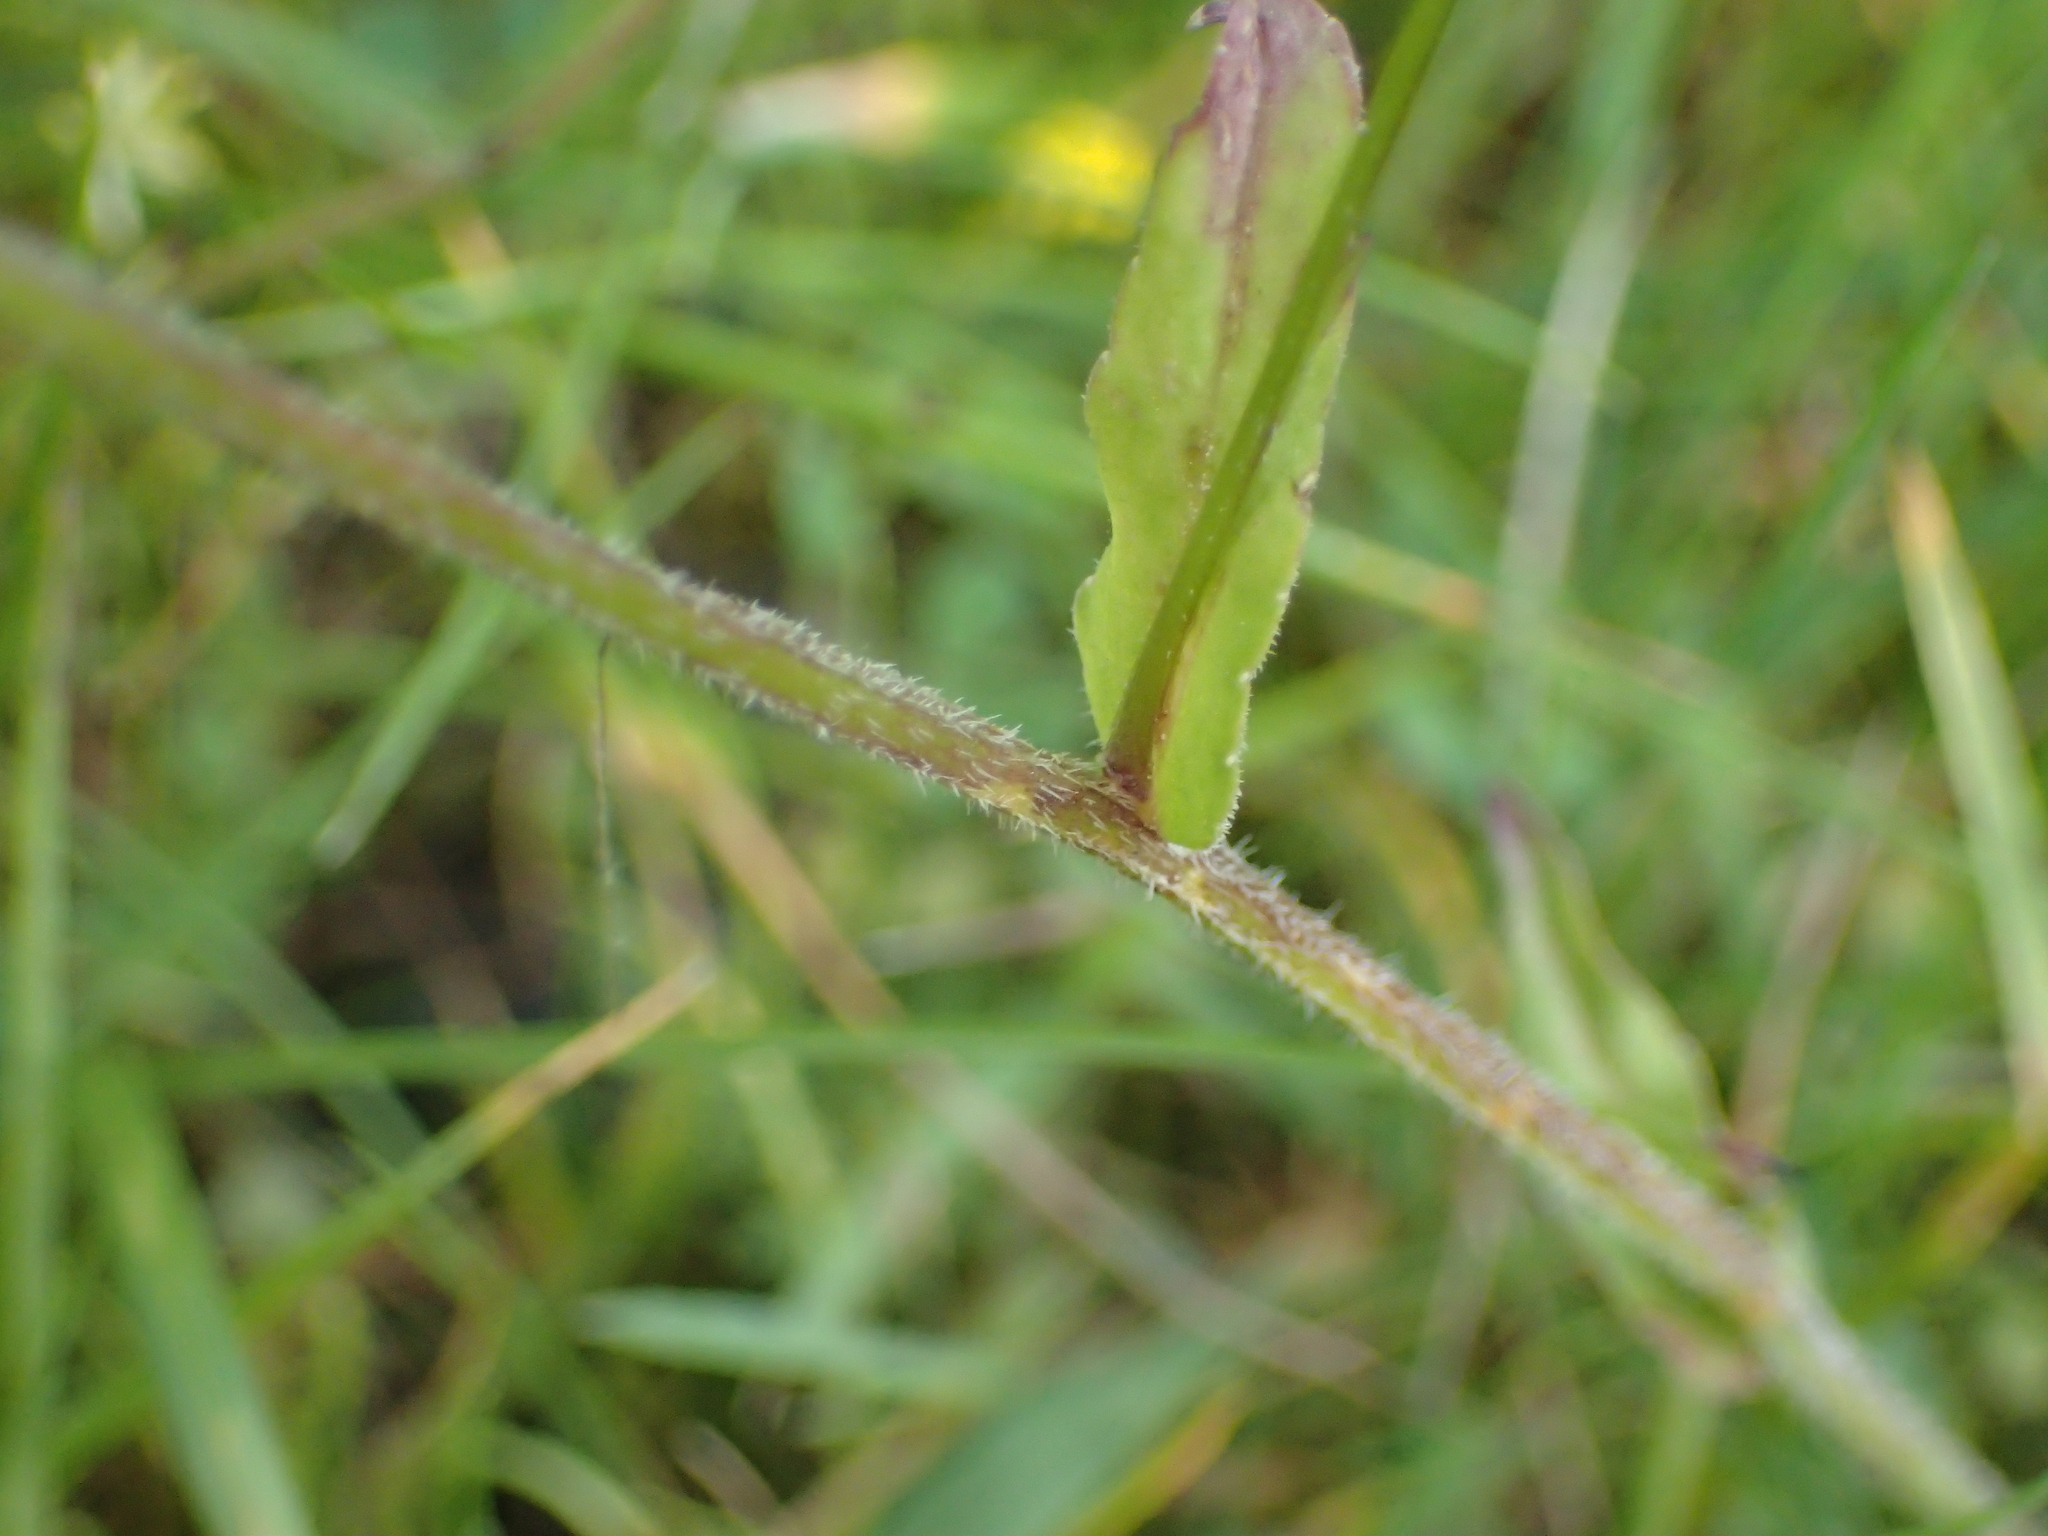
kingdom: Plantae
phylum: Tracheophyta
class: Magnoliopsida
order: Asterales
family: Campanulaceae
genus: Campanula
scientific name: Campanula patula
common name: Spreading bellflower
